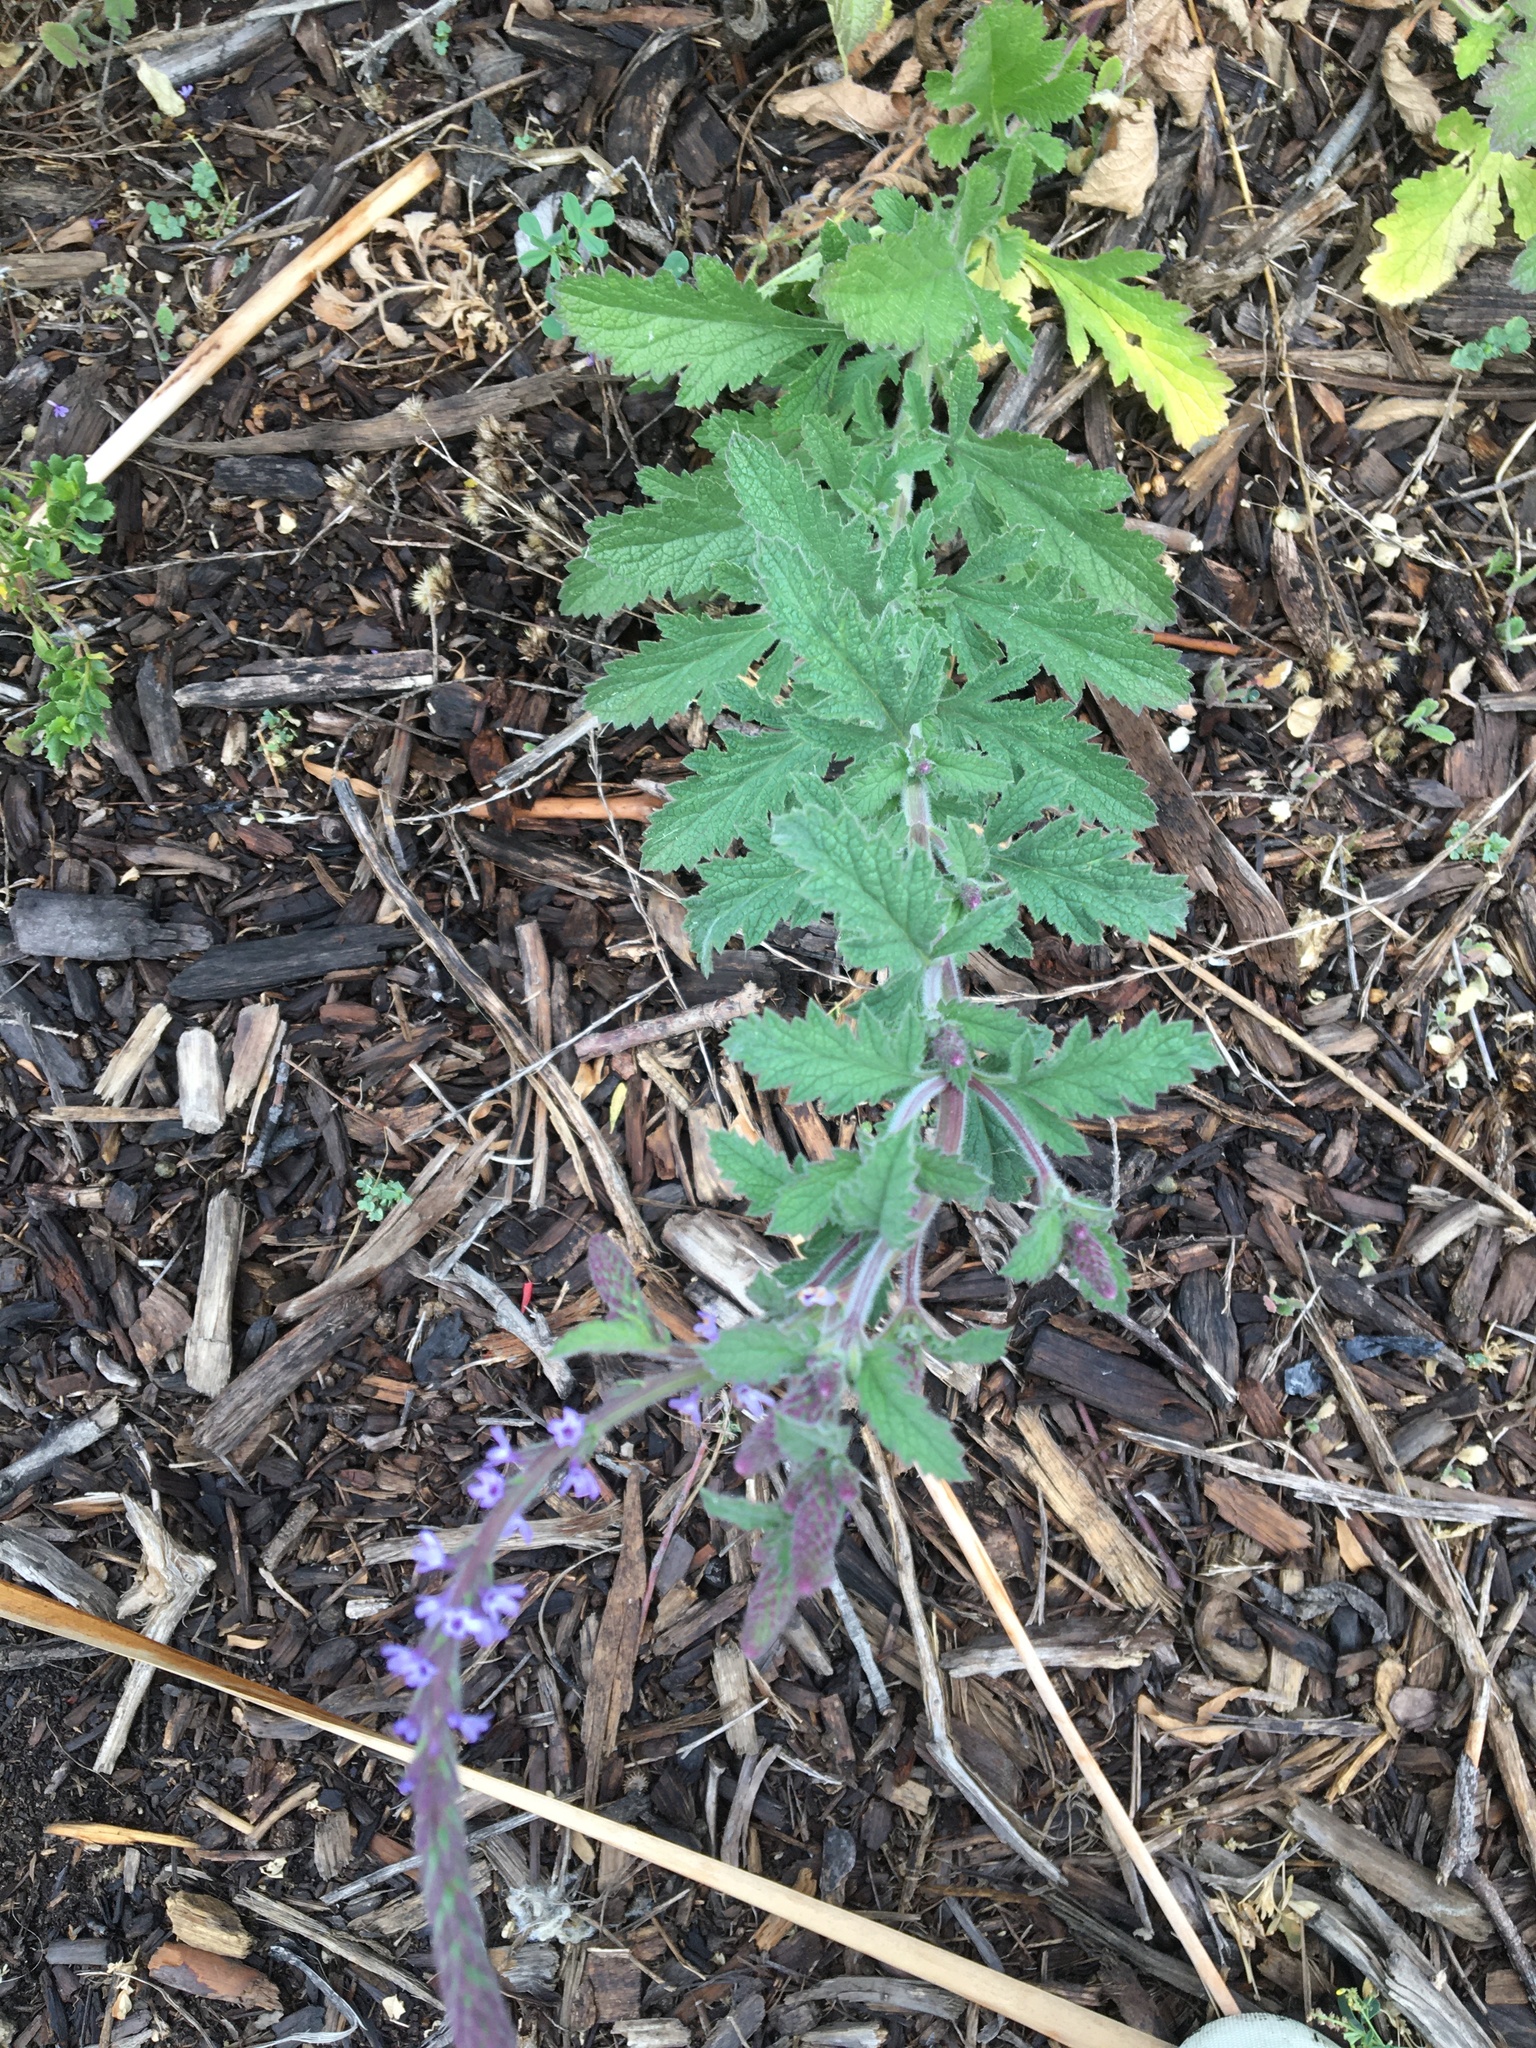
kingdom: Plantae
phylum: Tracheophyta
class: Magnoliopsida
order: Lamiales
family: Verbenaceae
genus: Verbena
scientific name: Verbena lasiostachys
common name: Vervain
